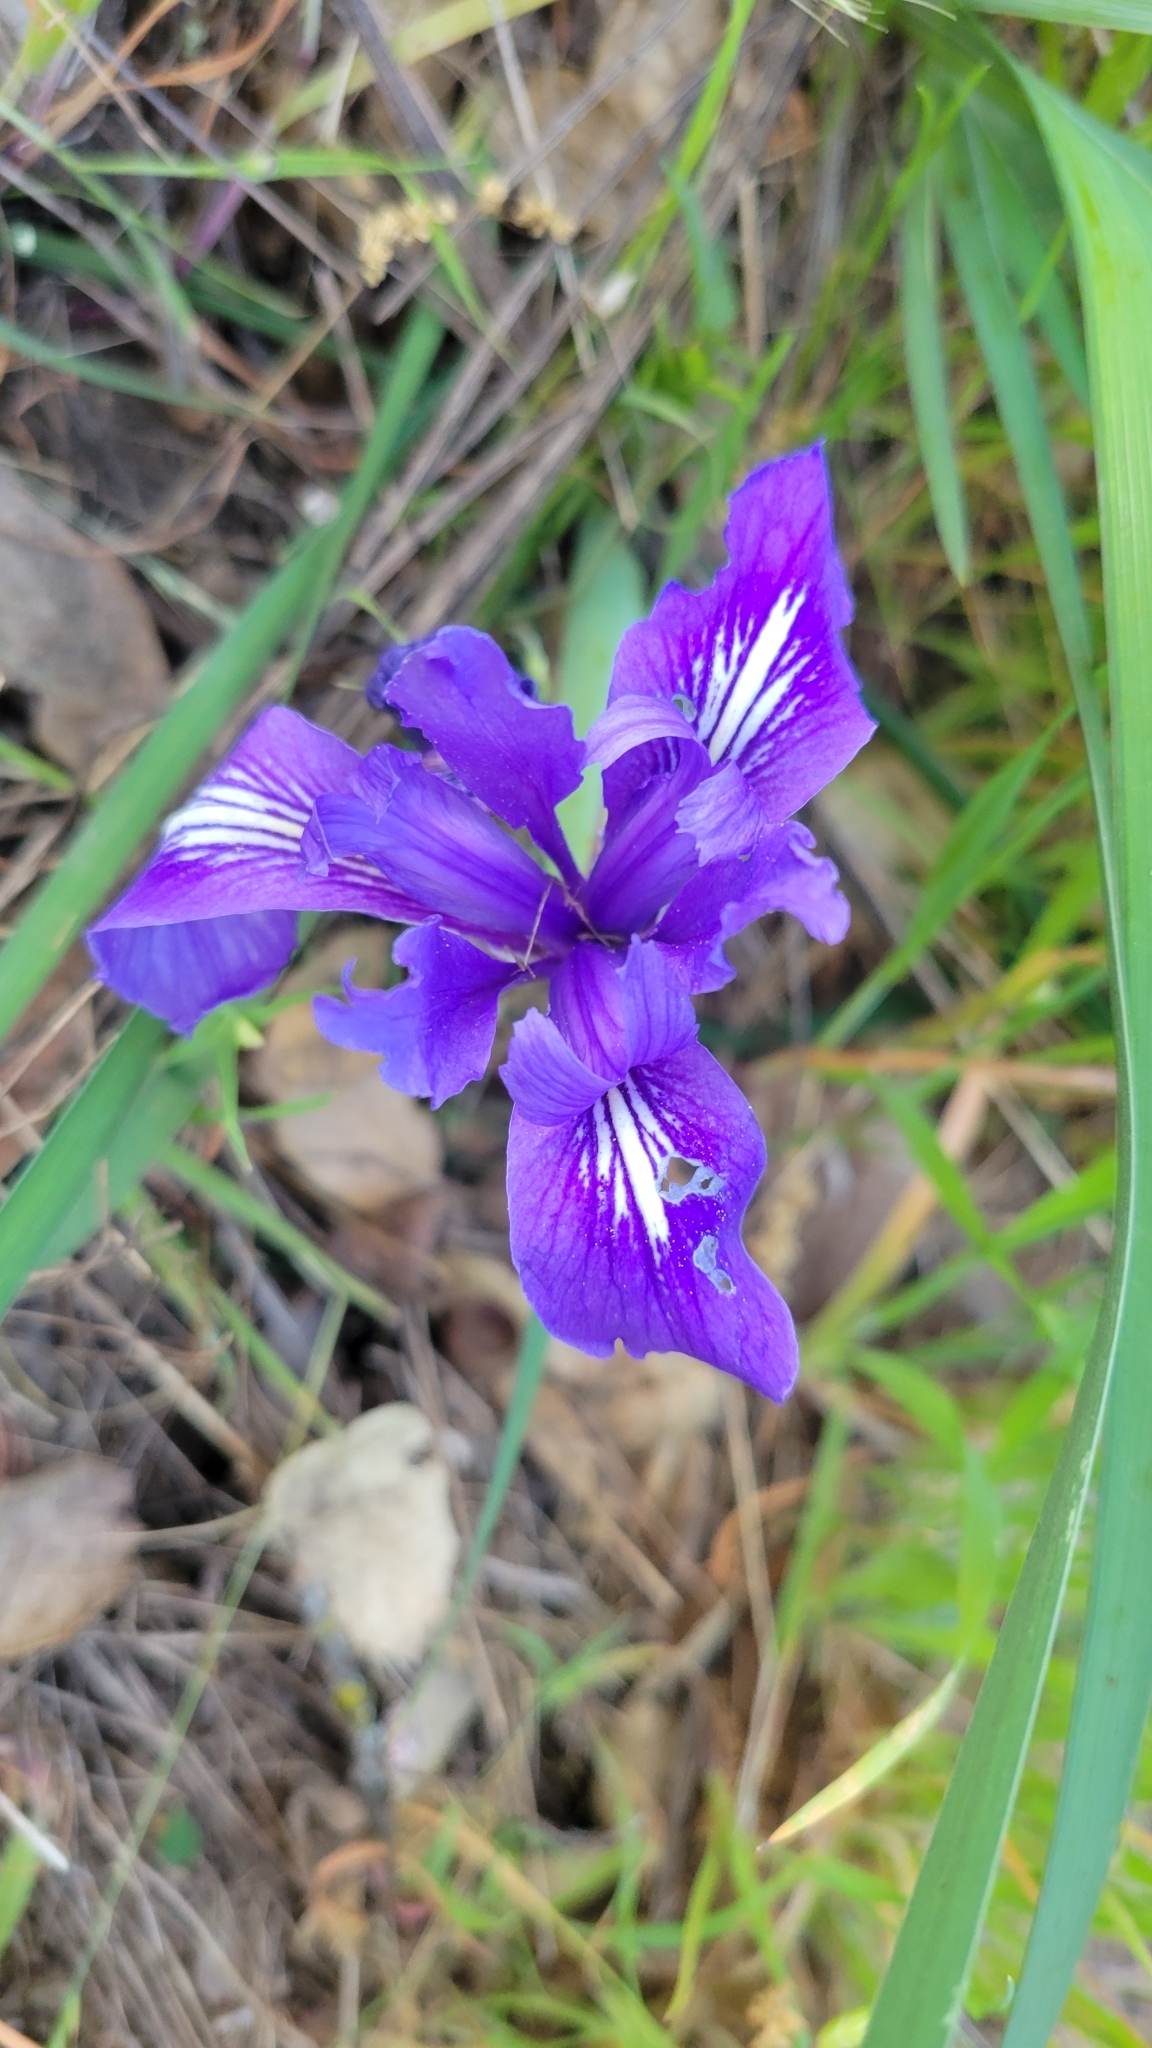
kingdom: Plantae
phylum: Tracheophyta
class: Liliopsida
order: Asparagales
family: Iridaceae
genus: Iris
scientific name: Iris macrosiphon
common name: Ground iris
